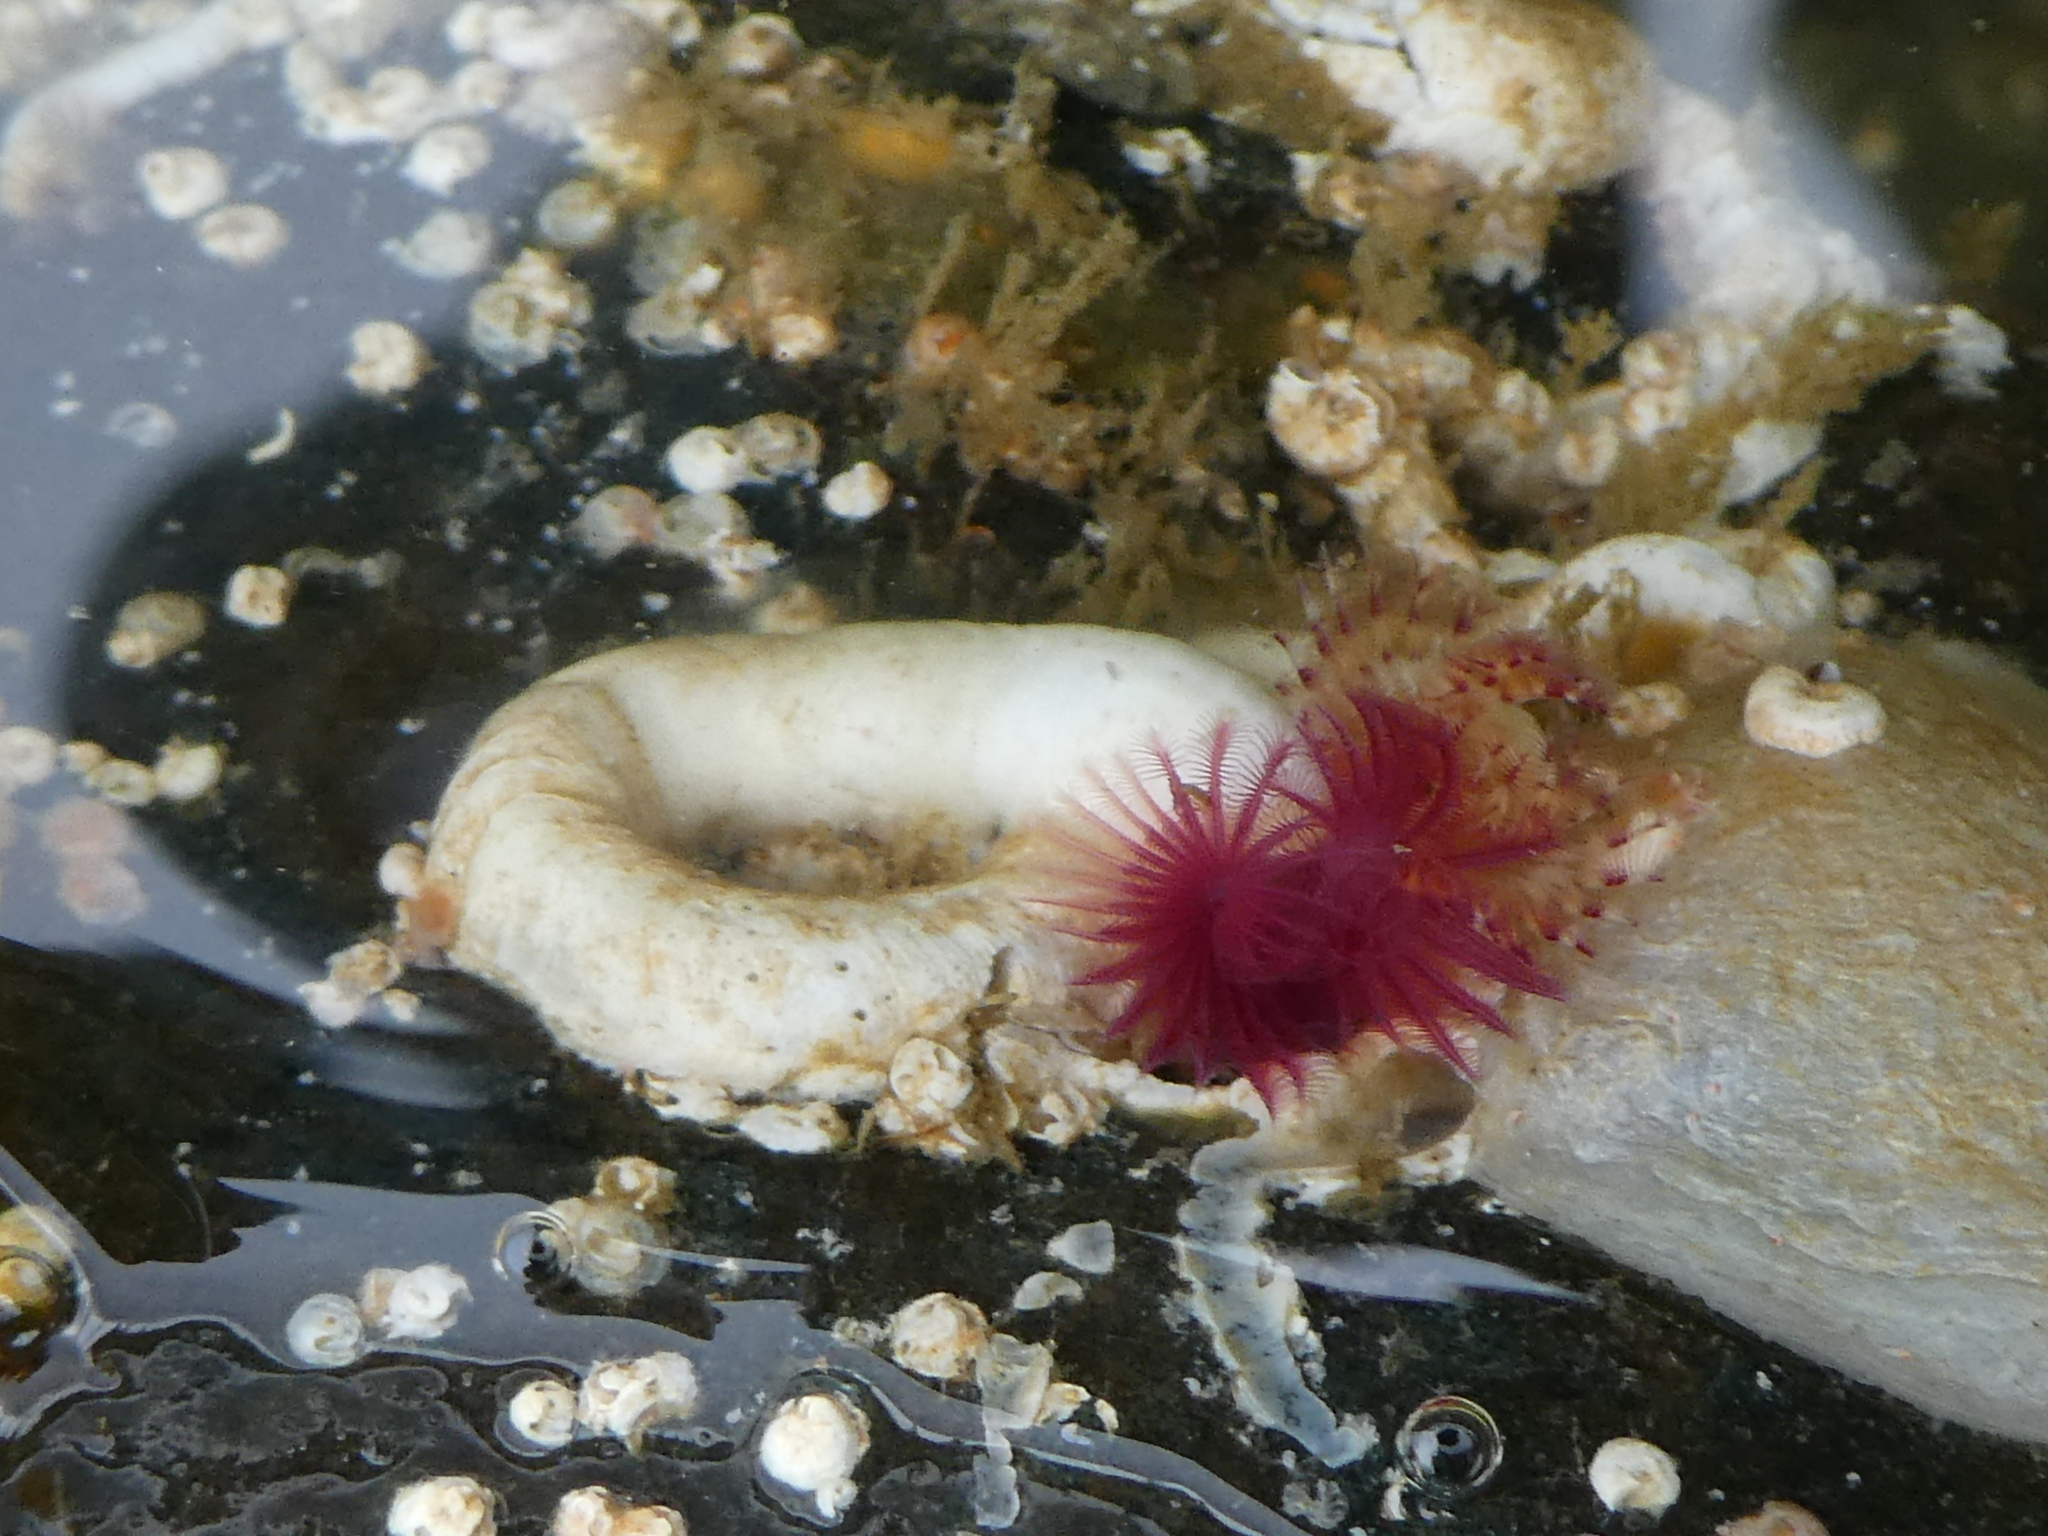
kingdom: Animalia
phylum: Annelida
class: Polychaeta
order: Sabellida
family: Serpulidae
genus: Serpula
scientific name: Serpula columbiana
